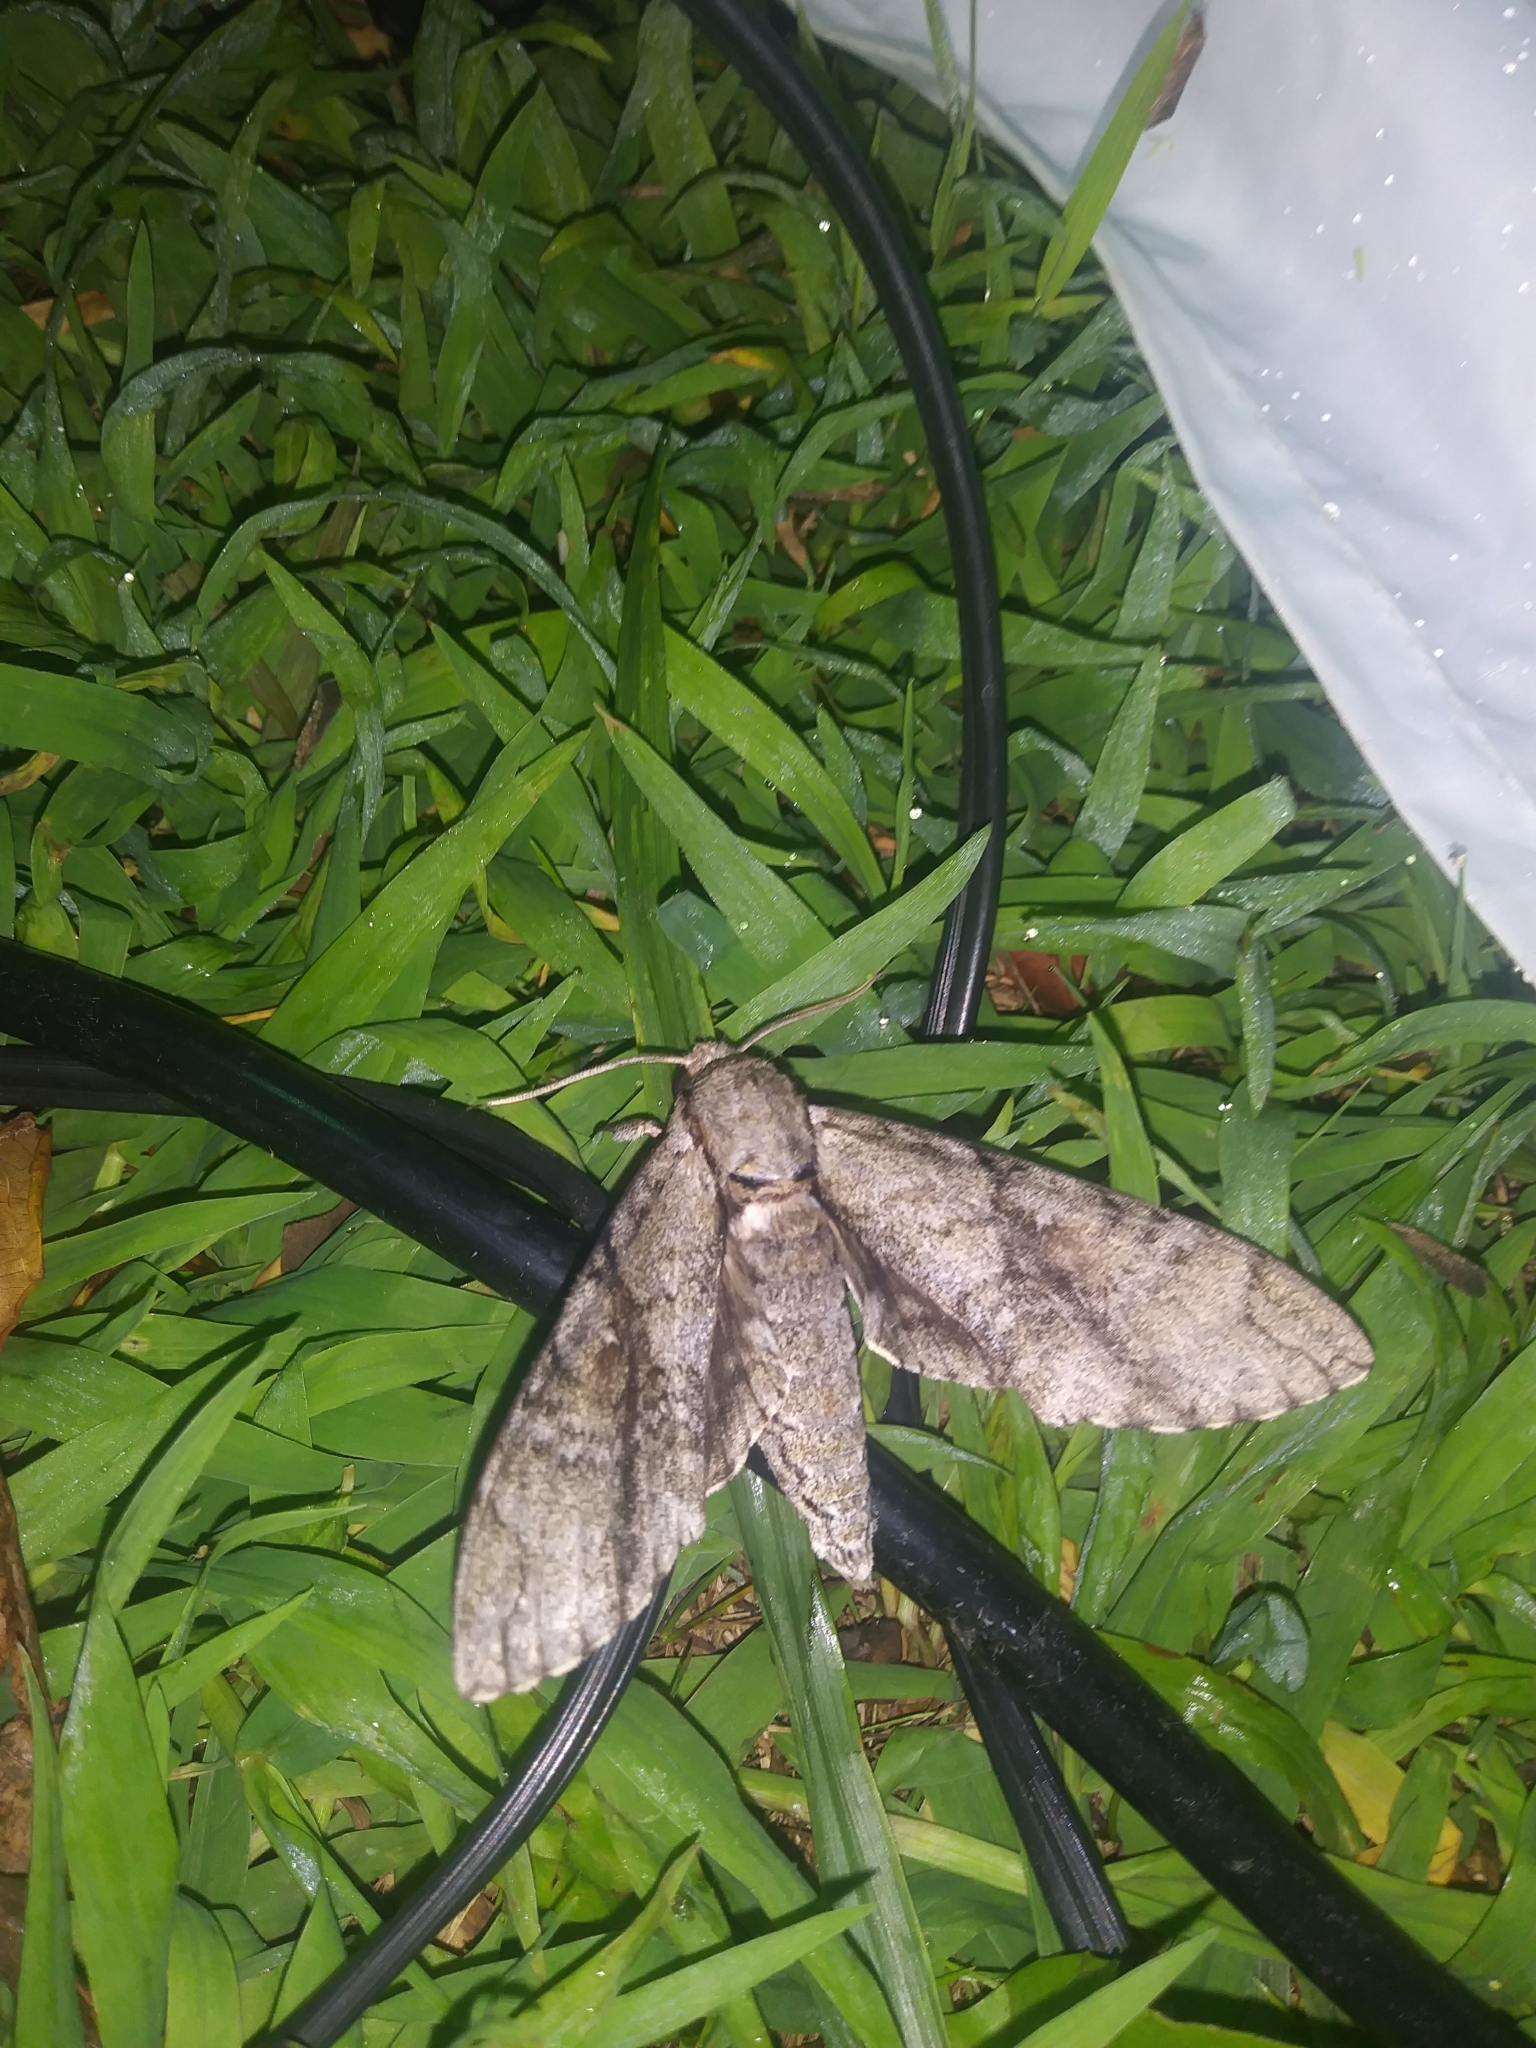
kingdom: Animalia
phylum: Arthropoda
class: Insecta
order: Lepidoptera
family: Sphingidae
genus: Manduca
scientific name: Manduca jasminearum
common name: Ash sphinx
